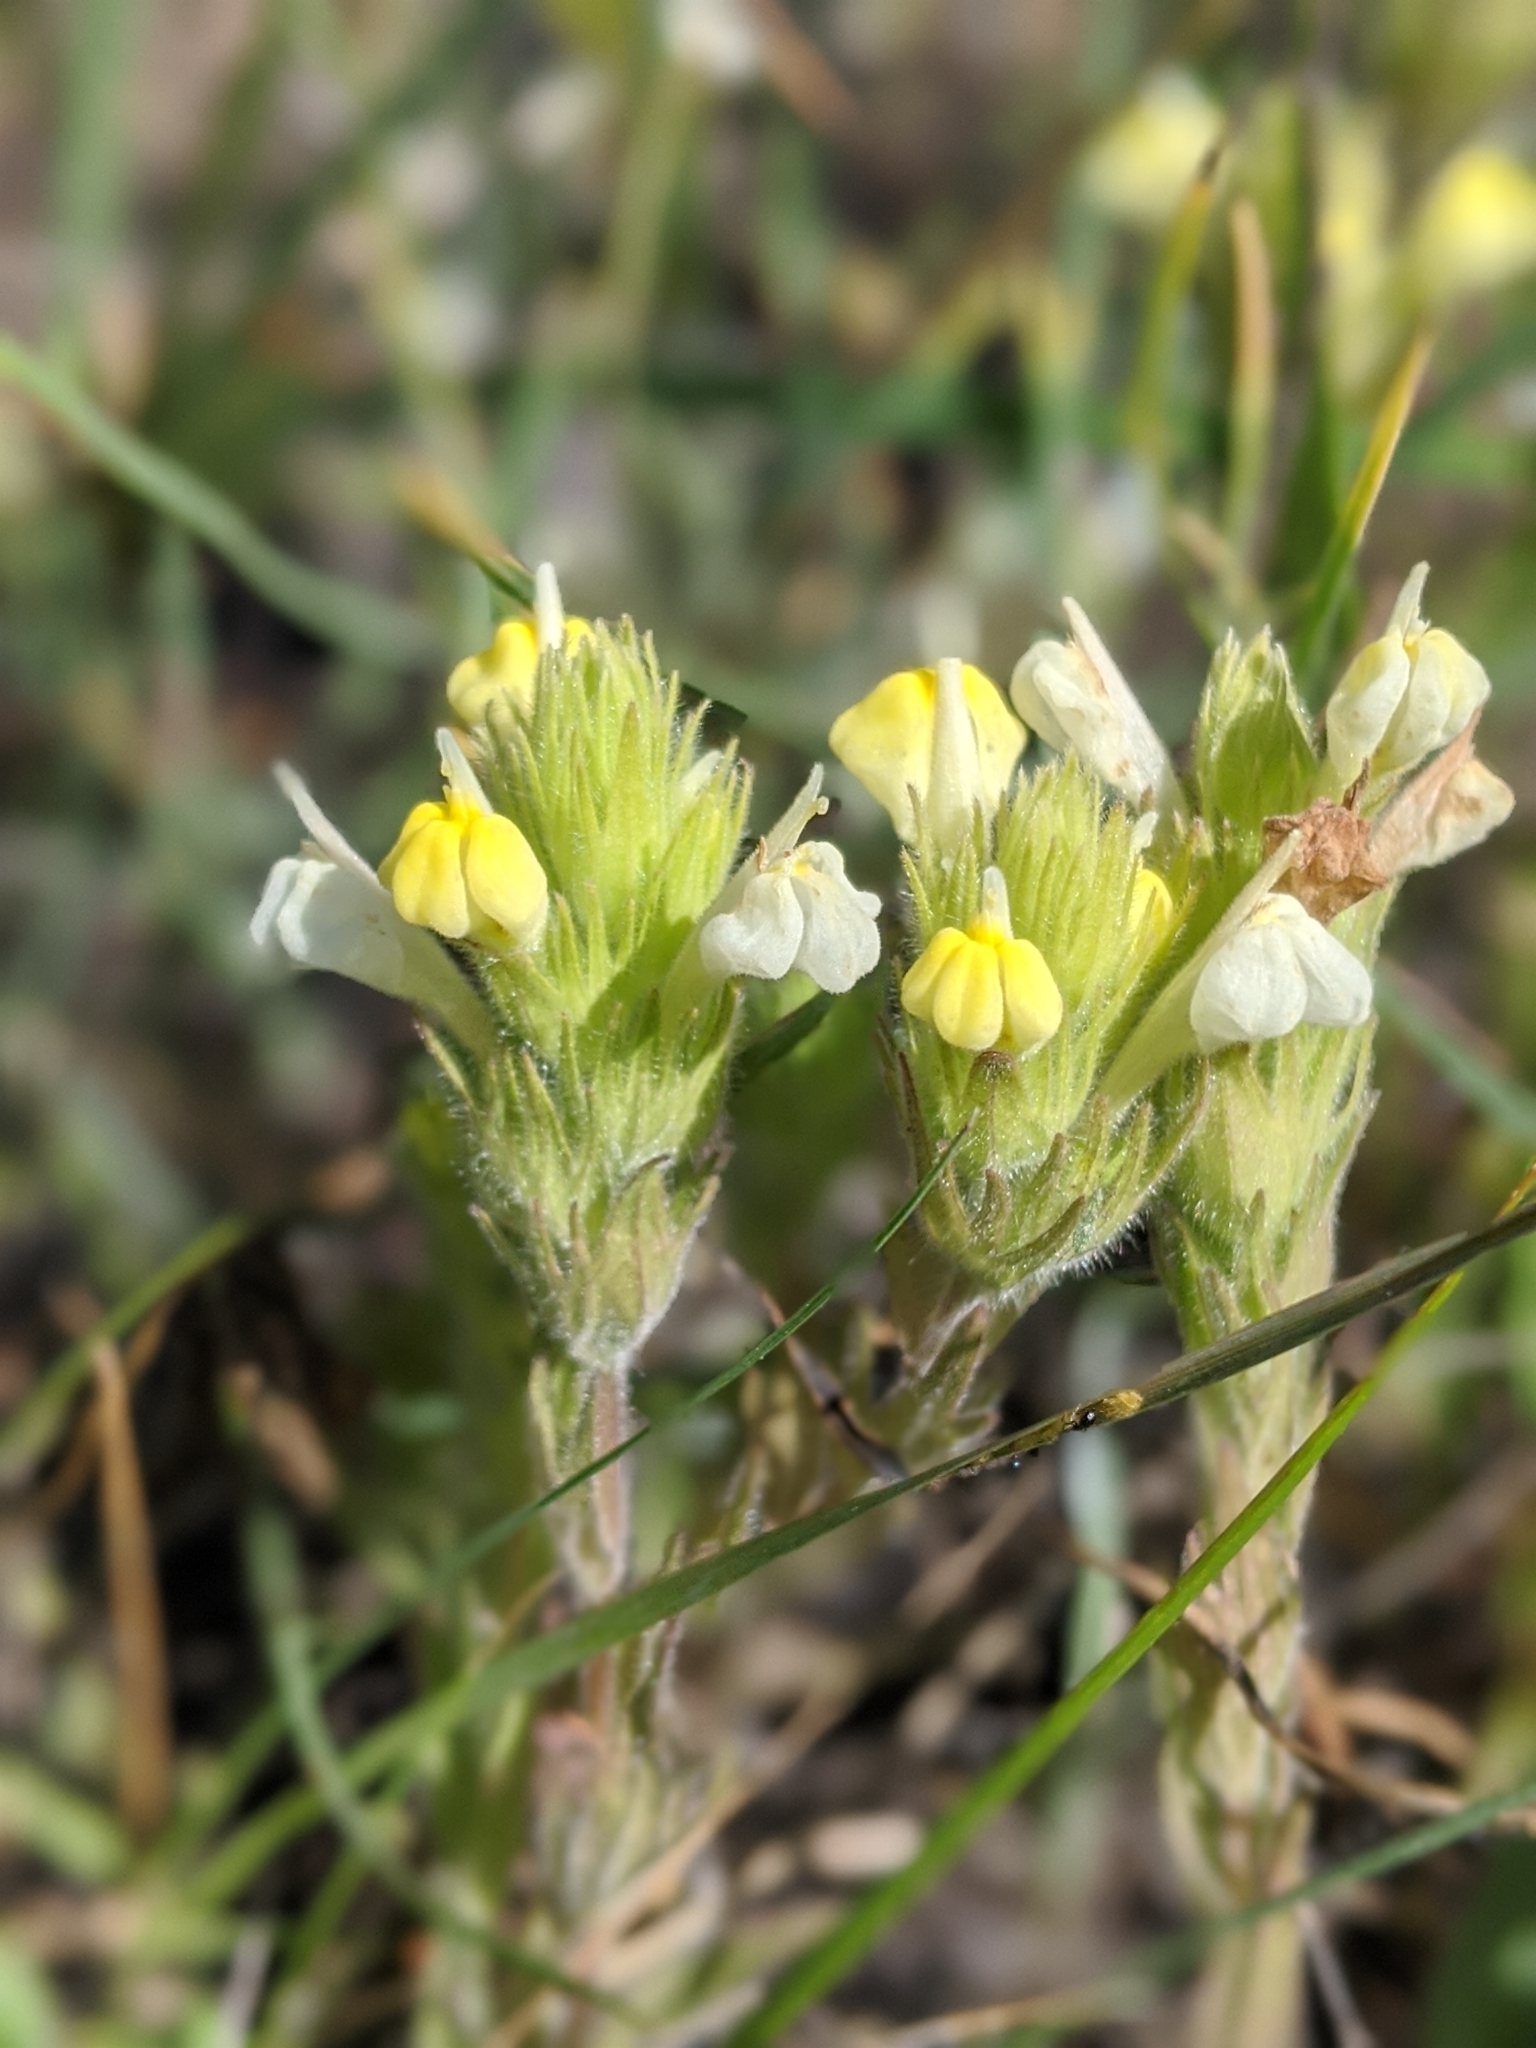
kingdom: Plantae
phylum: Tracheophyta
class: Magnoliopsida
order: Lamiales
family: Orobanchaceae
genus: Castilleja
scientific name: Castilleja rubicundula
